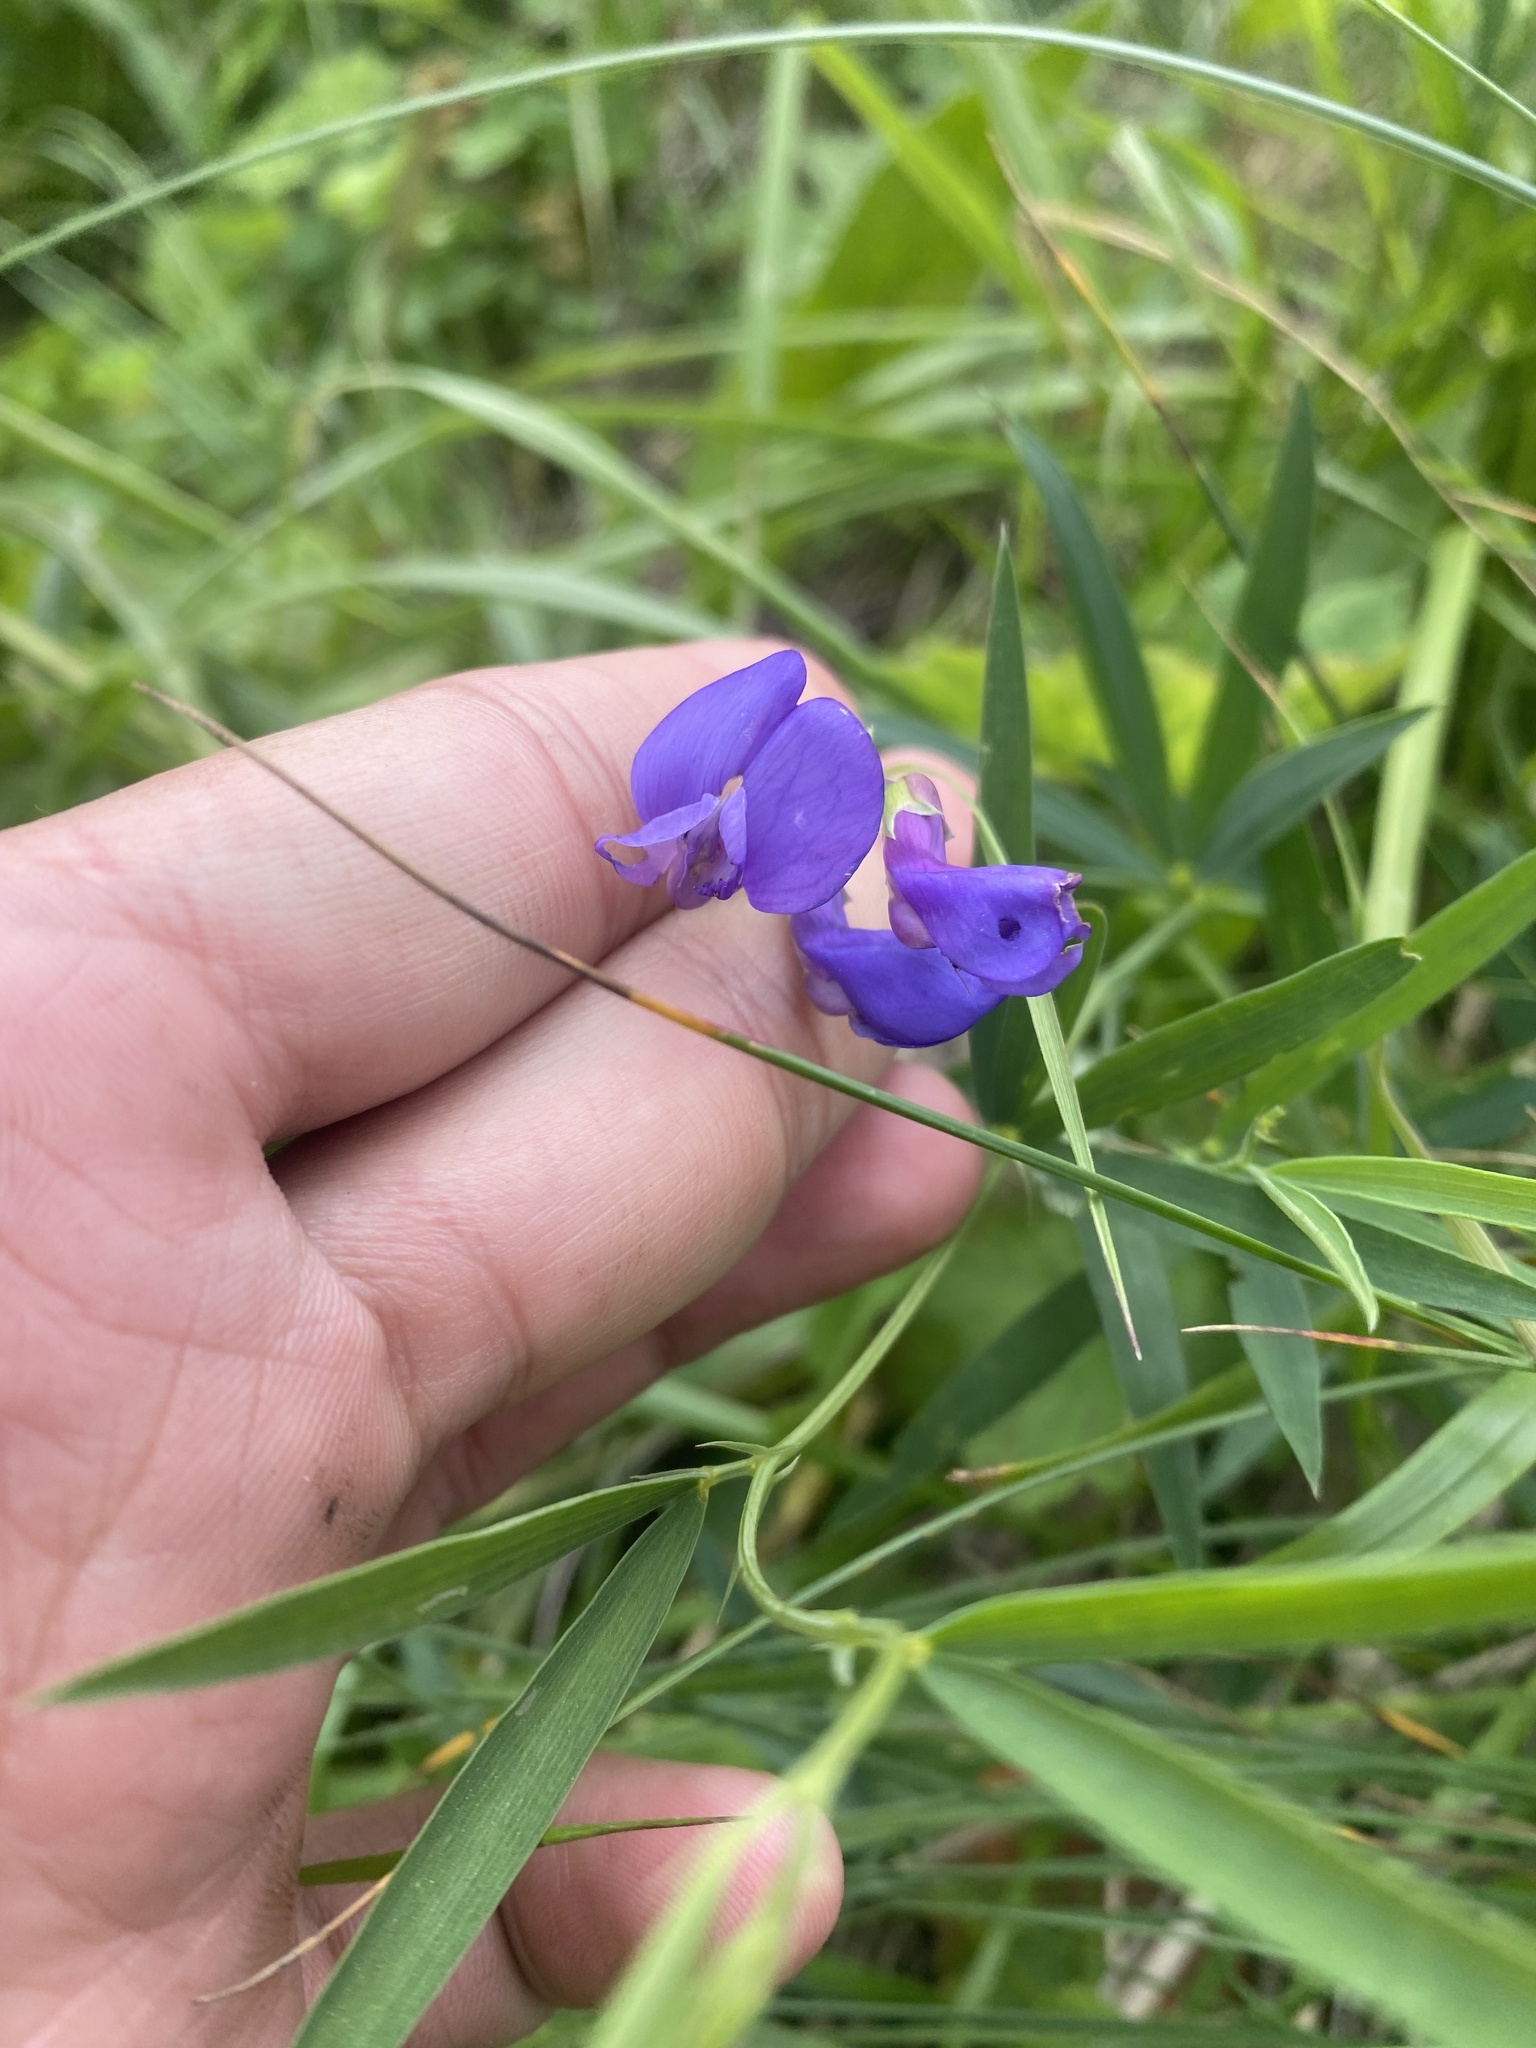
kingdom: Plantae
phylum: Tracheophyta
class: Magnoliopsida
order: Fabales
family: Fabaceae
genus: Lathyrus
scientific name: Lathyrus cyaneus
